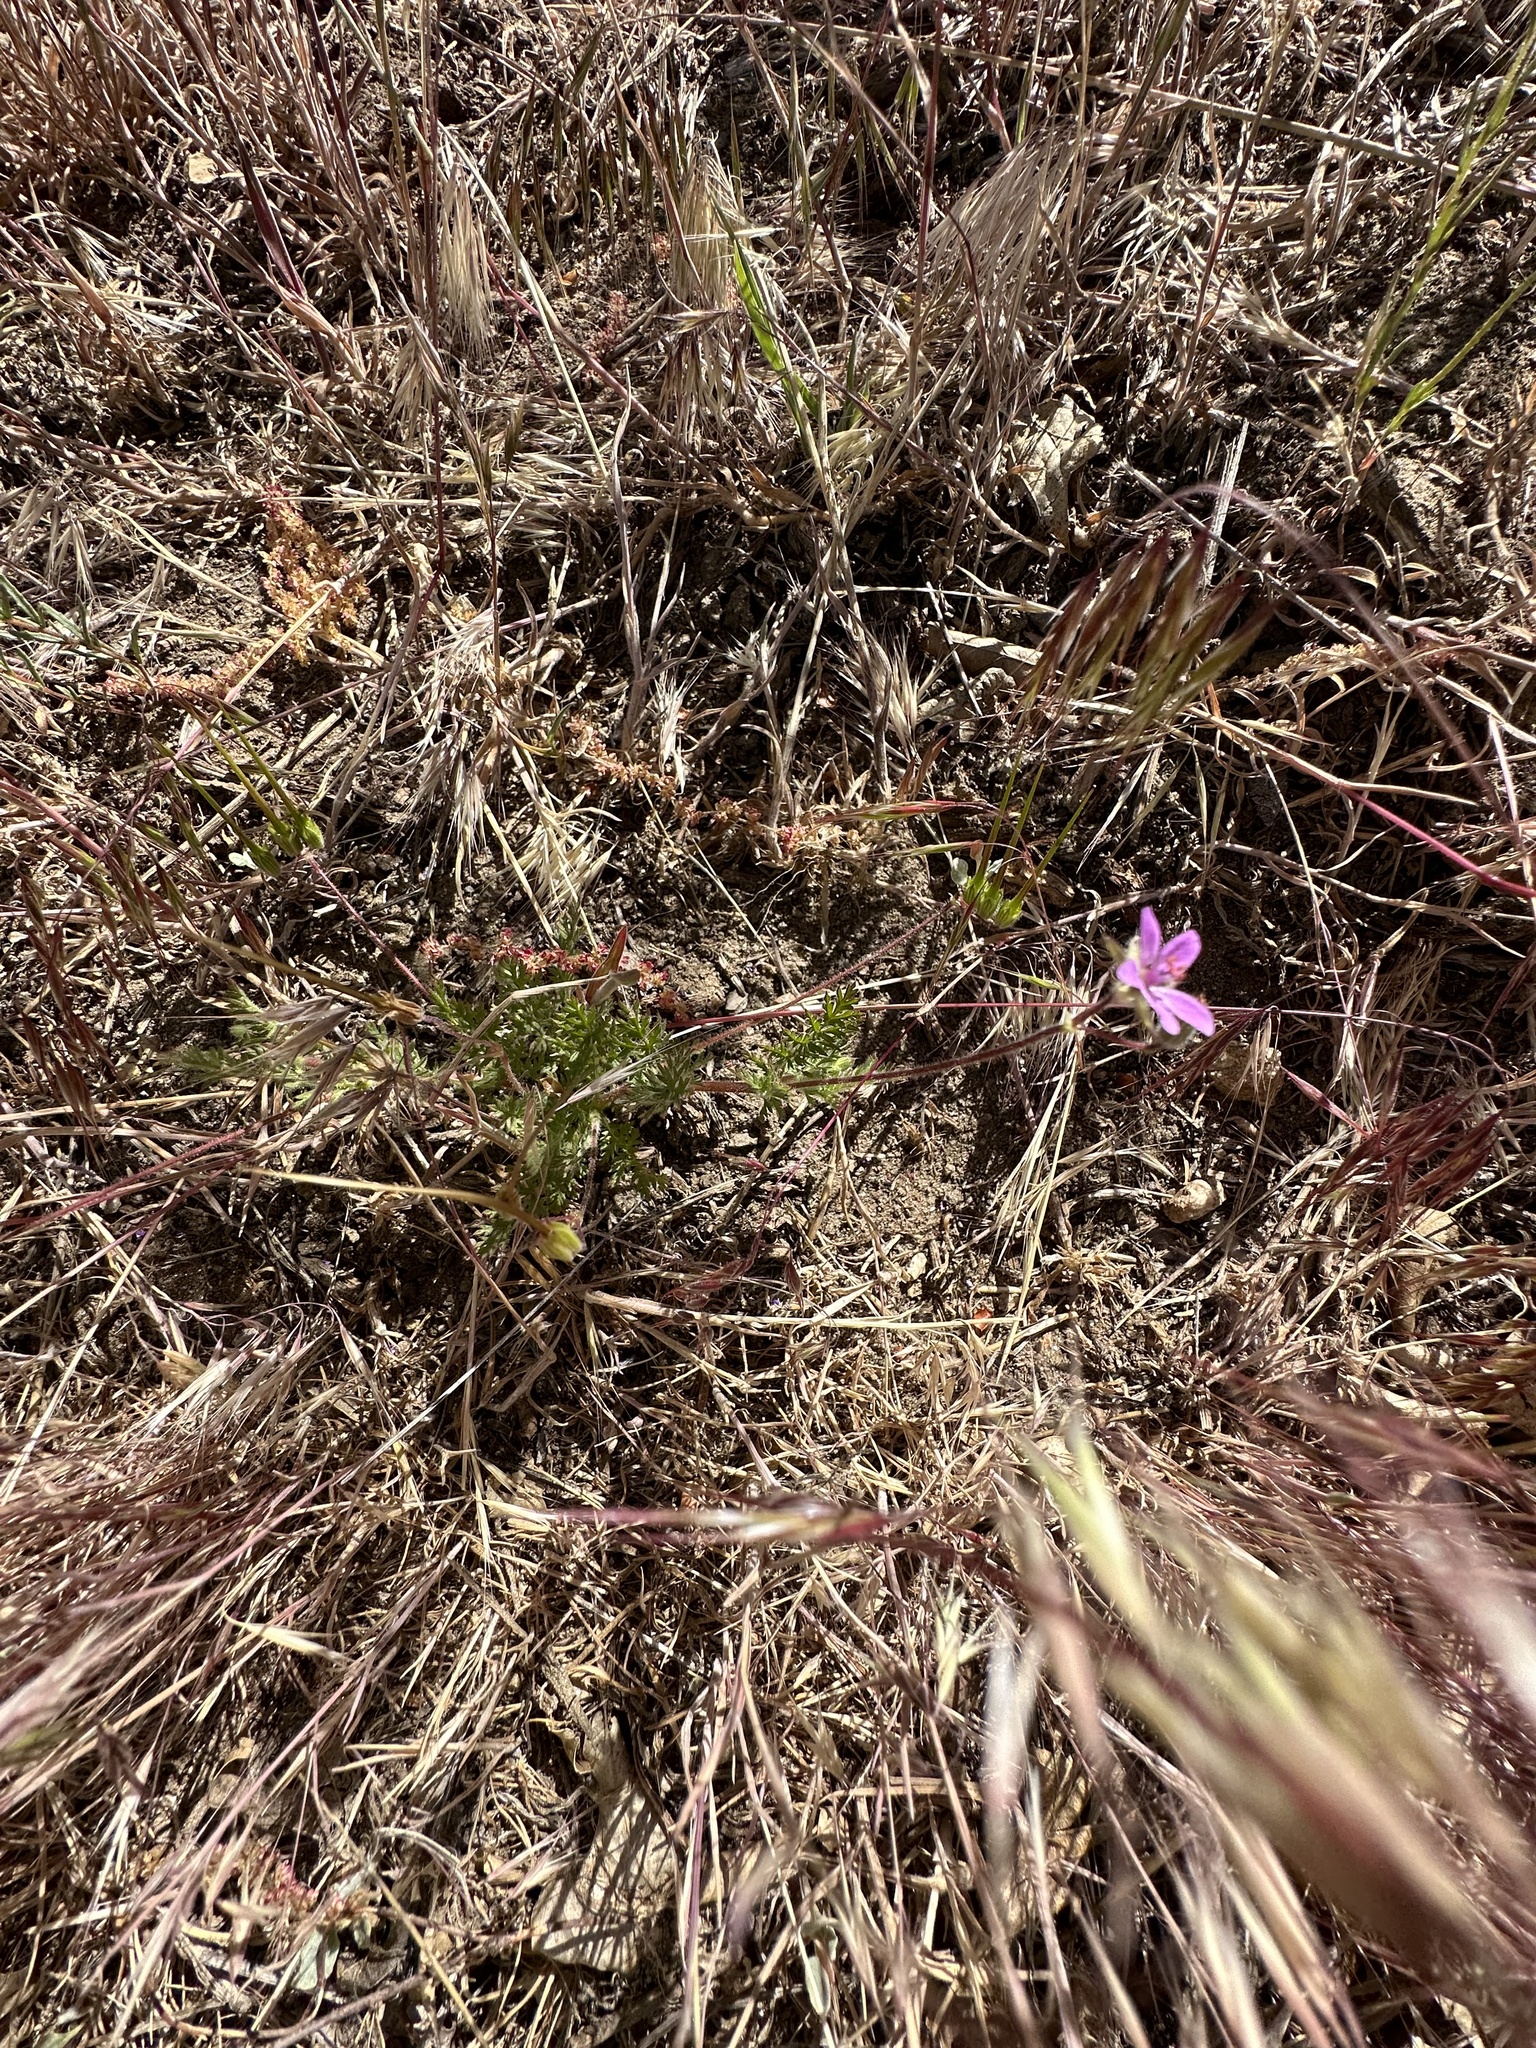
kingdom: Plantae
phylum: Tracheophyta
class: Magnoliopsida
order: Geraniales
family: Geraniaceae
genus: Erodium
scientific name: Erodium cicutarium
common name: Common stork's-bill
